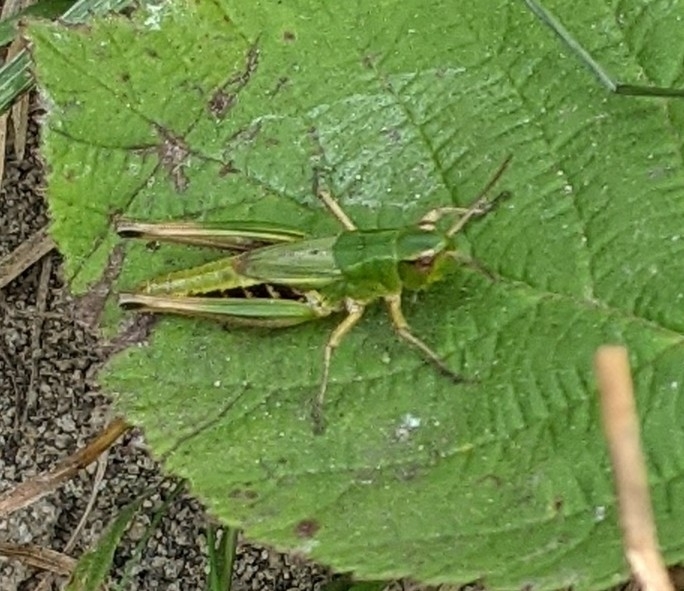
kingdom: Animalia
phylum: Arthropoda
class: Insecta
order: Orthoptera
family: Acrididae
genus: Pseudochorthippus
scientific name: Pseudochorthippus parallelus
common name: Meadow grasshopper
